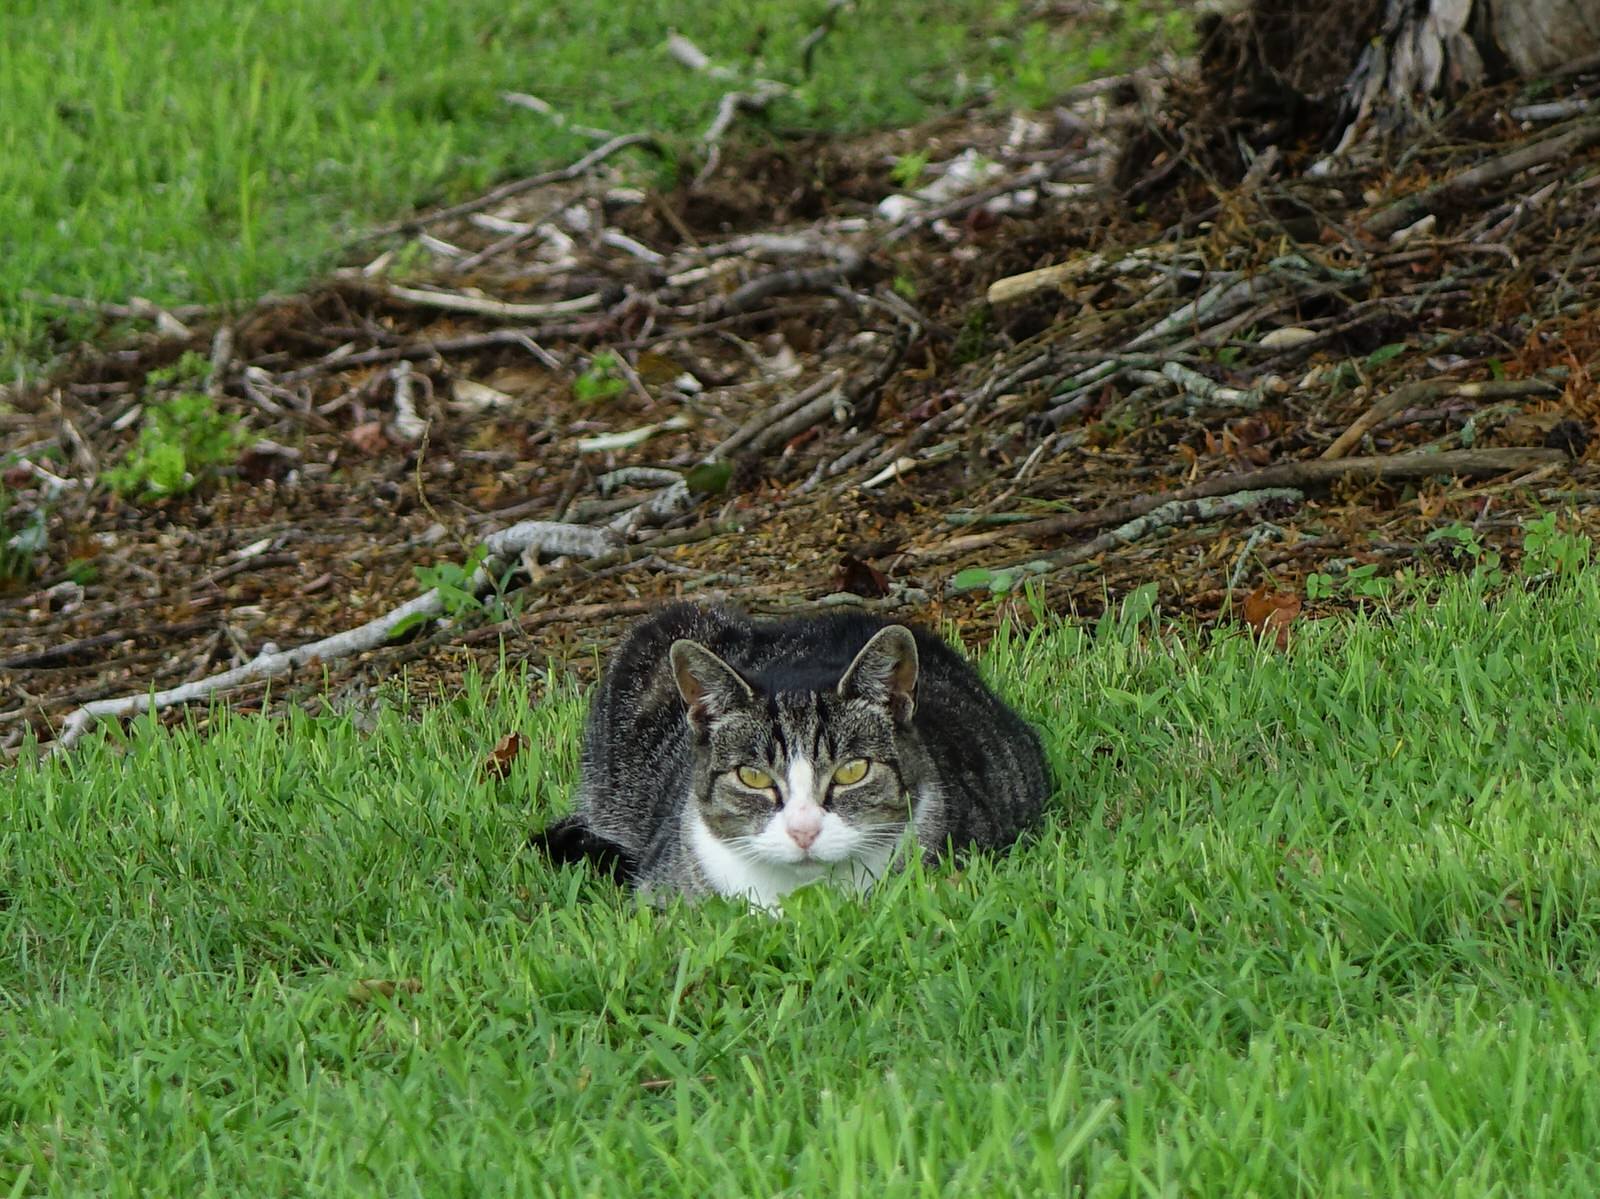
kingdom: Animalia
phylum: Chordata
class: Mammalia
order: Carnivora
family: Felidae
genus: Felis
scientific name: Felis catus
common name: Domestic cat
